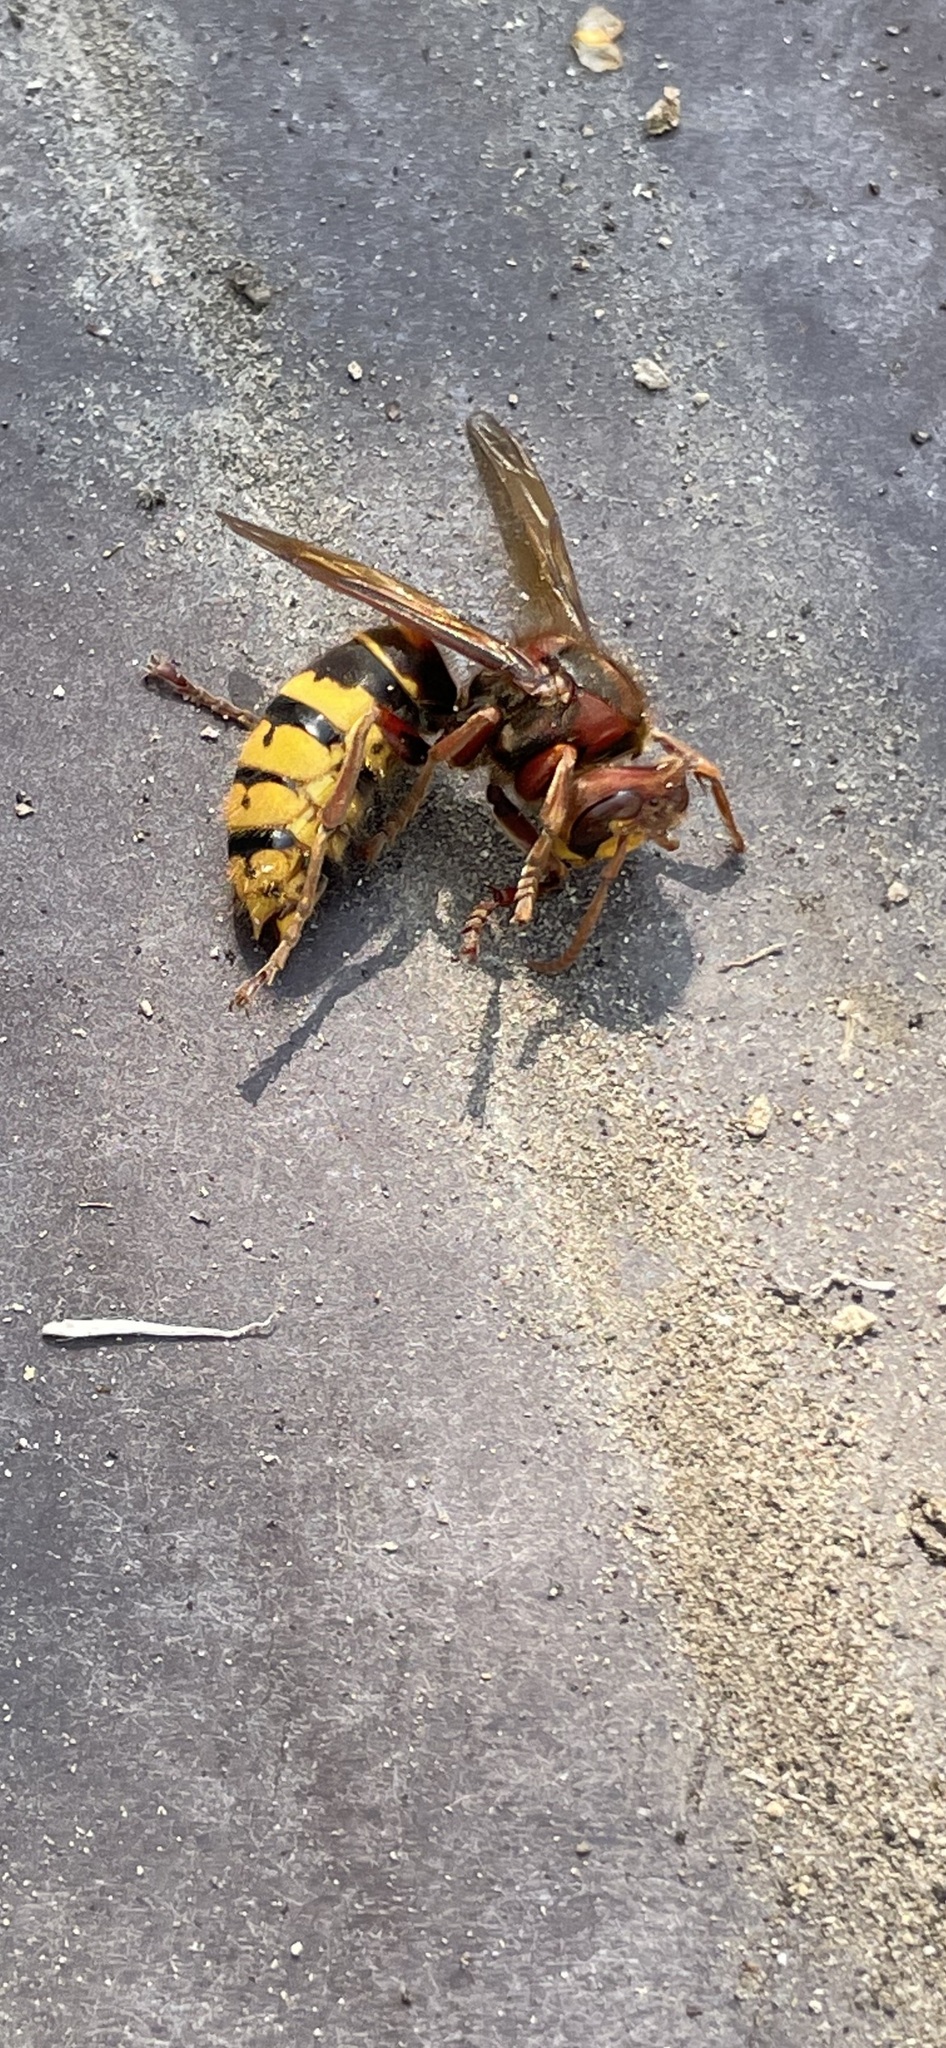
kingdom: Animalia
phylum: Arthropoda
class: Insecta
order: Hymenoptera
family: Vespidae
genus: Vespa
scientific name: Vespa crabro
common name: Hornet
